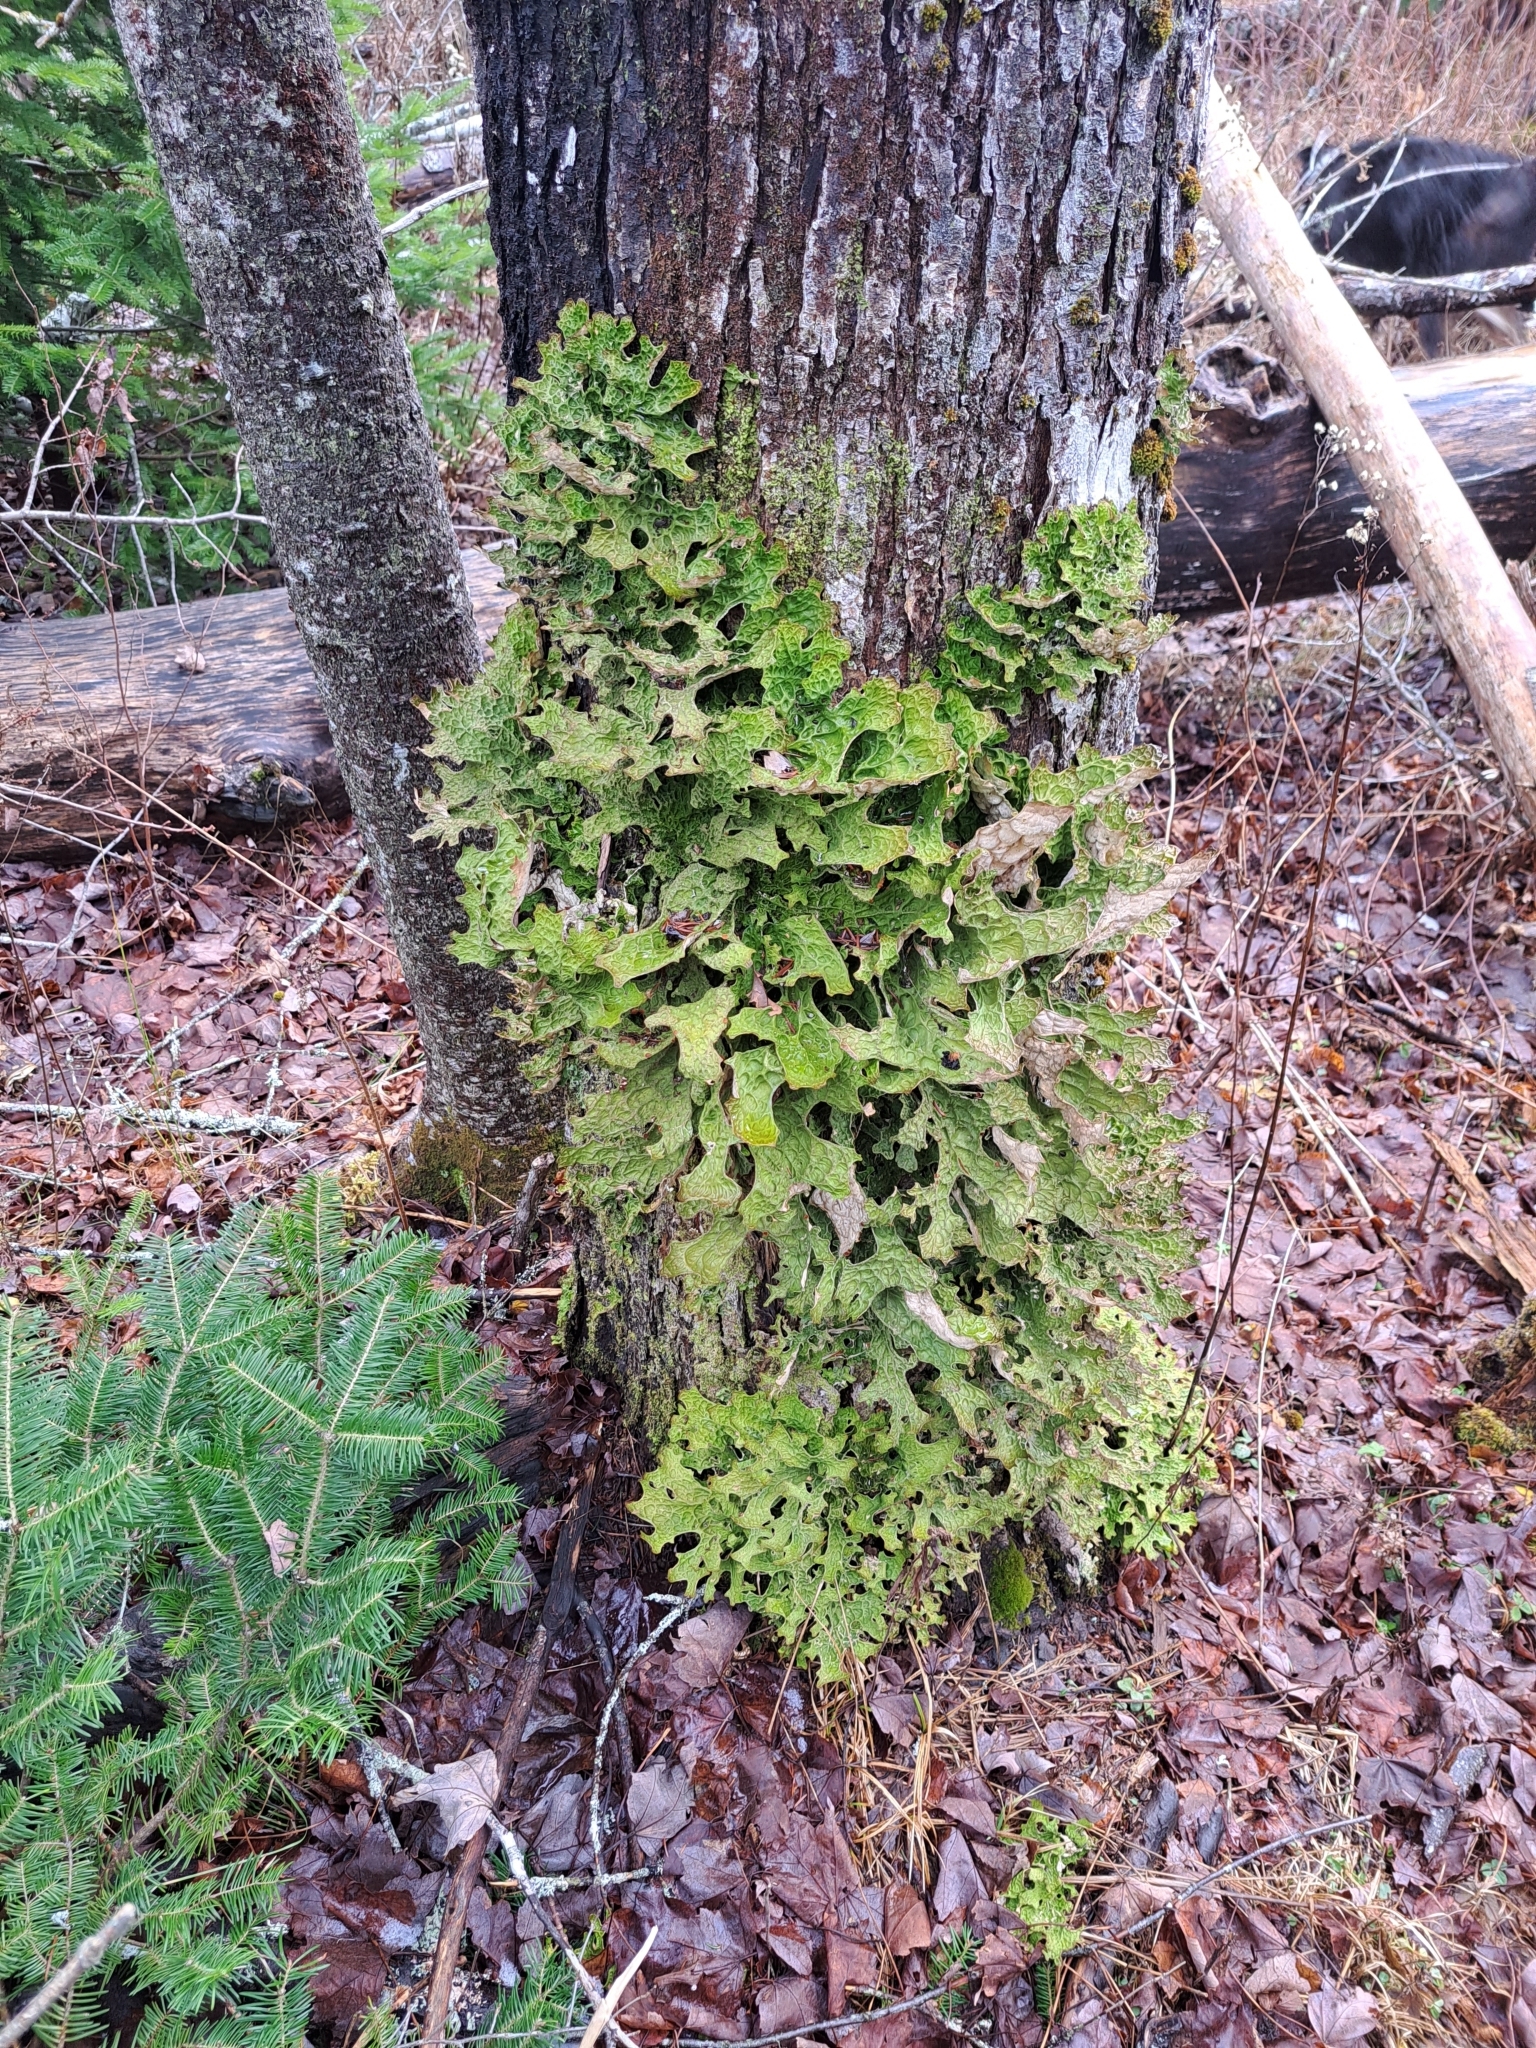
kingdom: Fungi
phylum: Ascomycota
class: Lecanoromycetes
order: Peltigerales
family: Lobariaceae
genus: Lobaria
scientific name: Lobaria pulmonaria
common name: Lungwort
